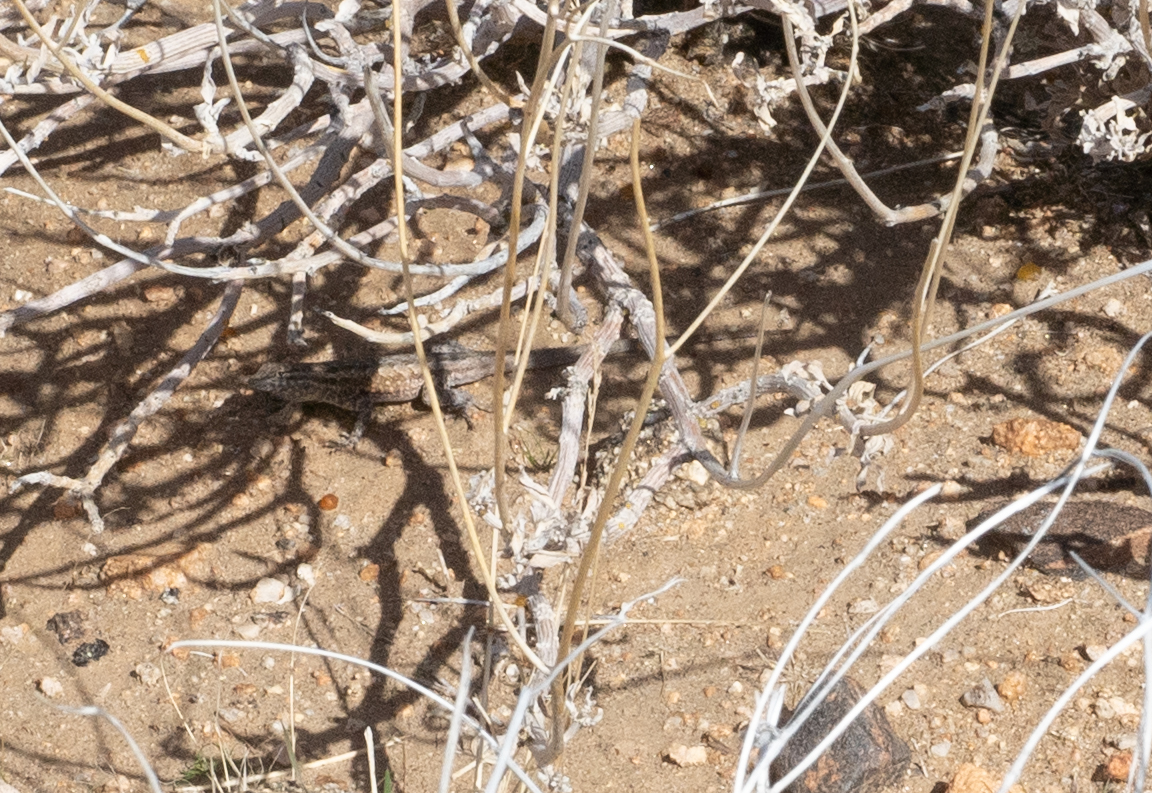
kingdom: Animalia
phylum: Chordata
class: Squamata
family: Phrynosomatidae
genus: Uta
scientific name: Uta stansburiana
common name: Side-blotched lizard
